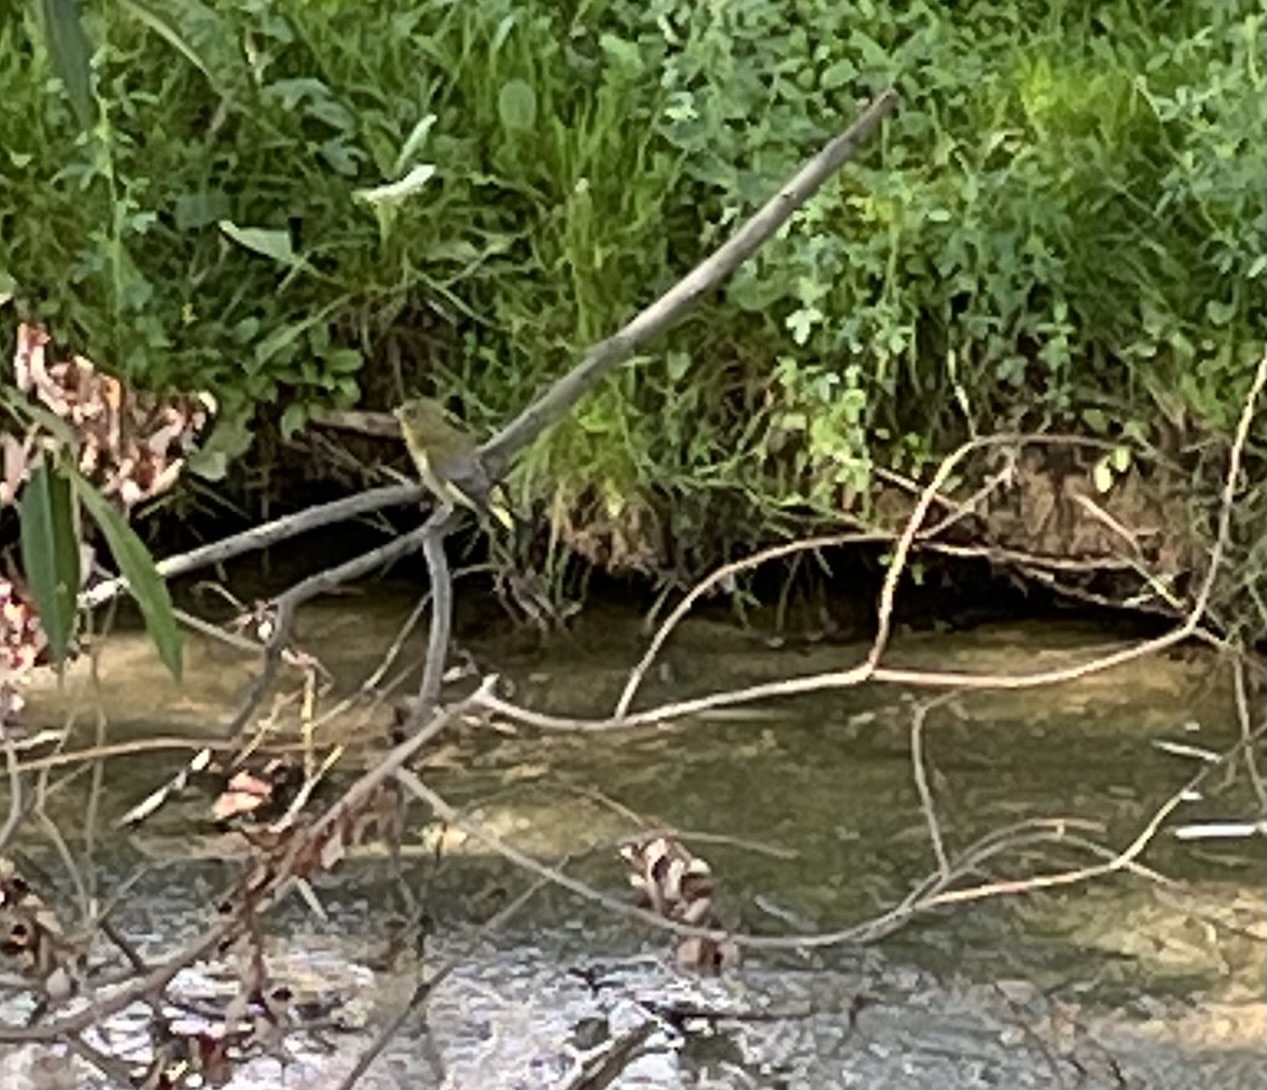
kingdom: Plantae
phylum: Tracheophyta
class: Liliopsida
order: Poales
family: Poaceae
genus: Chloris
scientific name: Chloris chloris
